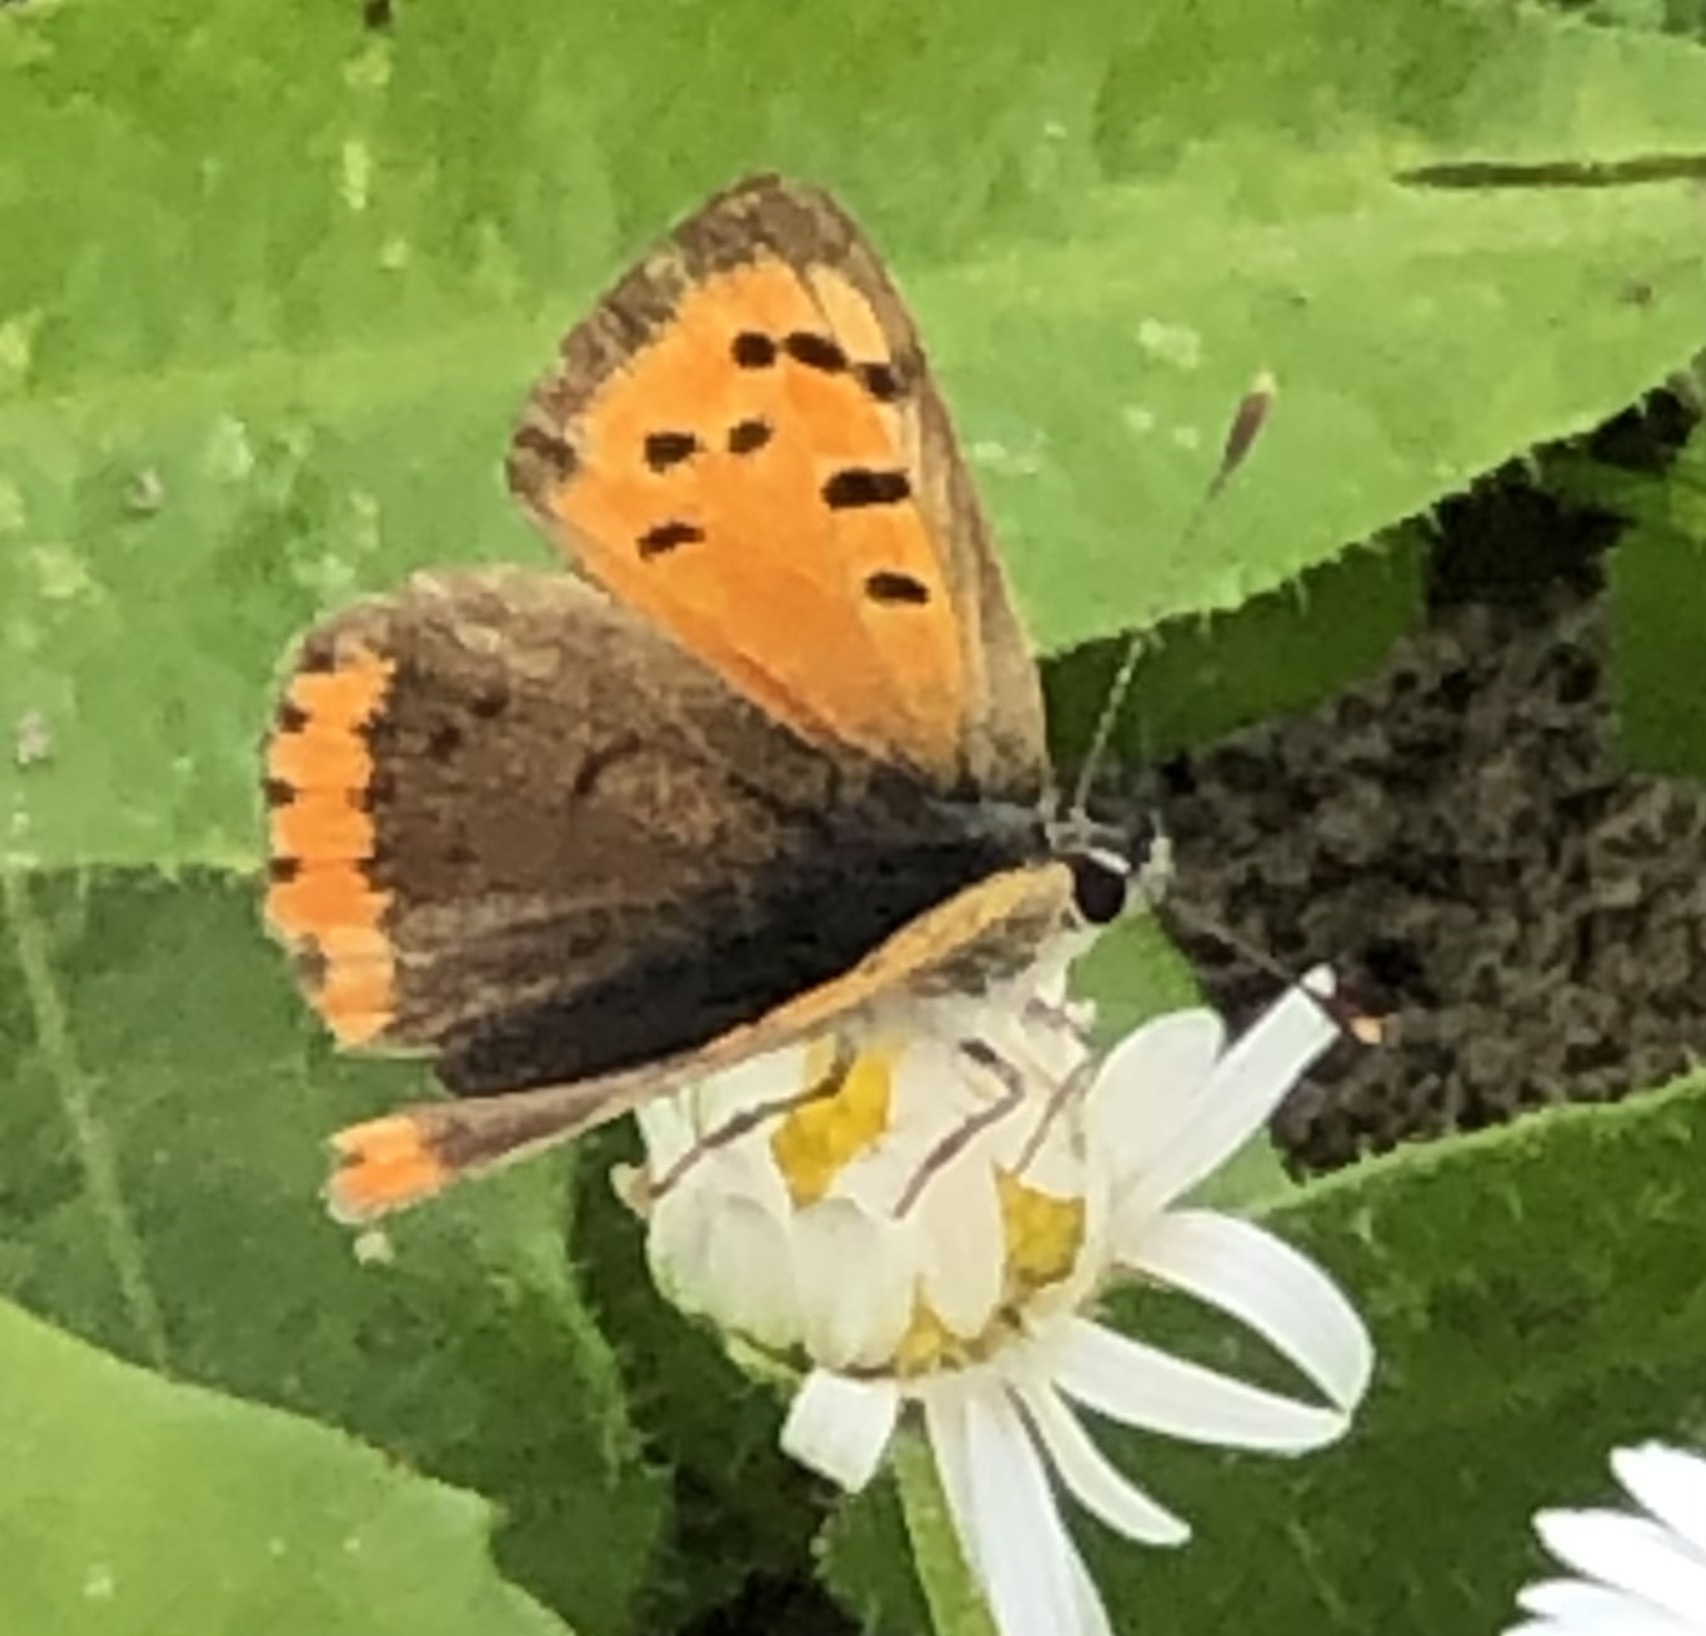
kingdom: Animalia
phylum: Arthropoda
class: Insecta
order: Lepidoptera
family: Lycaenidae
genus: Lycaena
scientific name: Lycaena phlaeas
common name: Small copper
